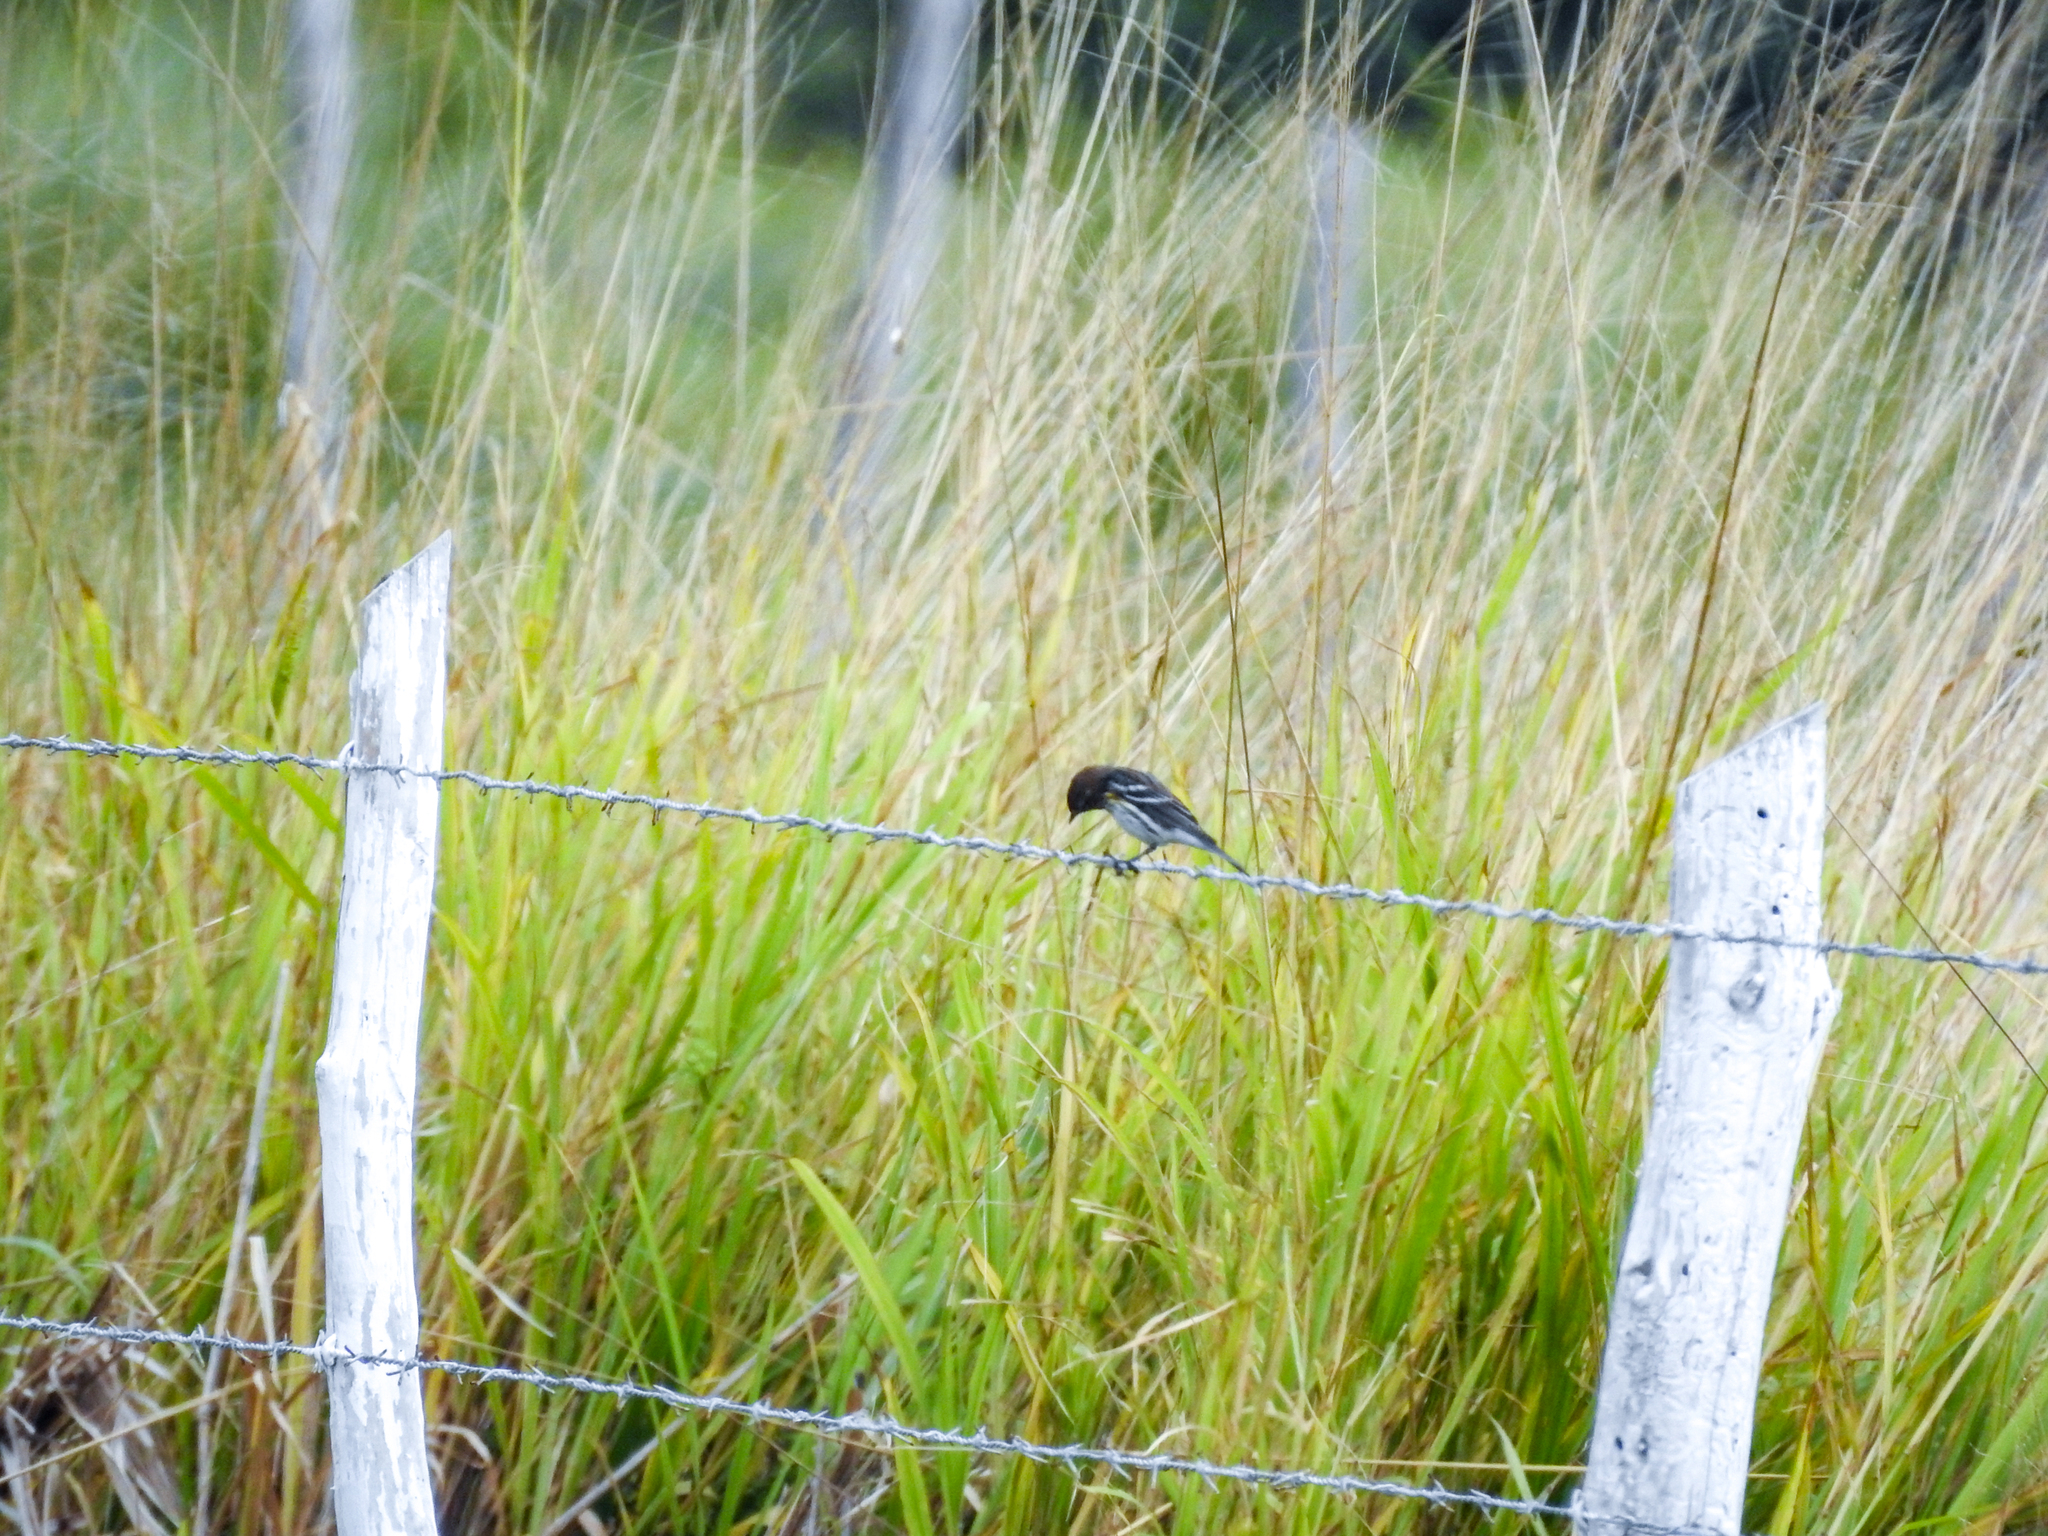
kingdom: Animalia
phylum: Chordata
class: Aves
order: Passeriformes
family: Parulidae
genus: Setophaga
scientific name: Setophaga coronata
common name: Myrtle warbler
